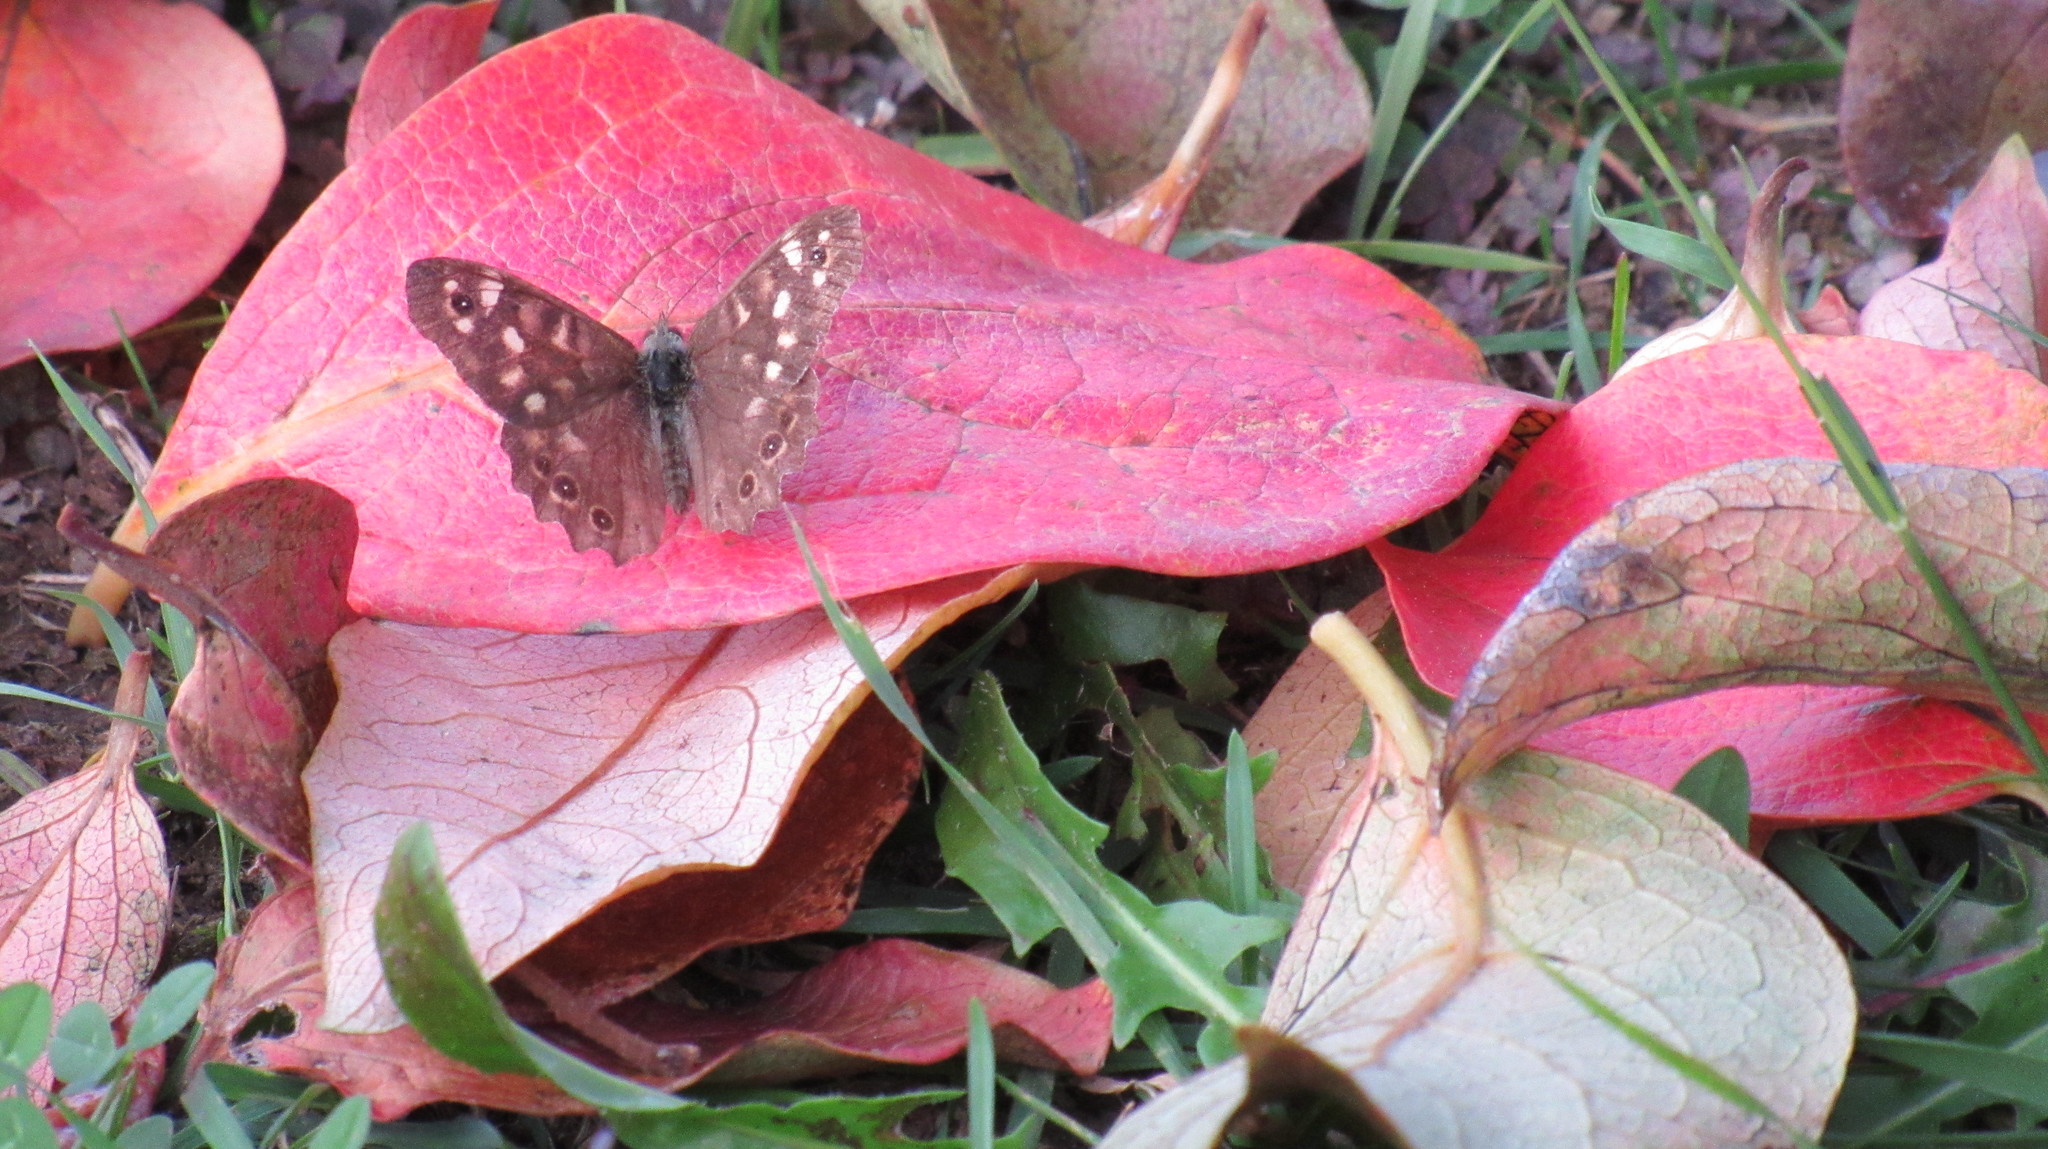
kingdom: Animalia
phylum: Arthropoda
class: Insecta
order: Lepidoptera
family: Nymphalidae
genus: Pararge
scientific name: Pararge aegeria
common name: Speckled wood
